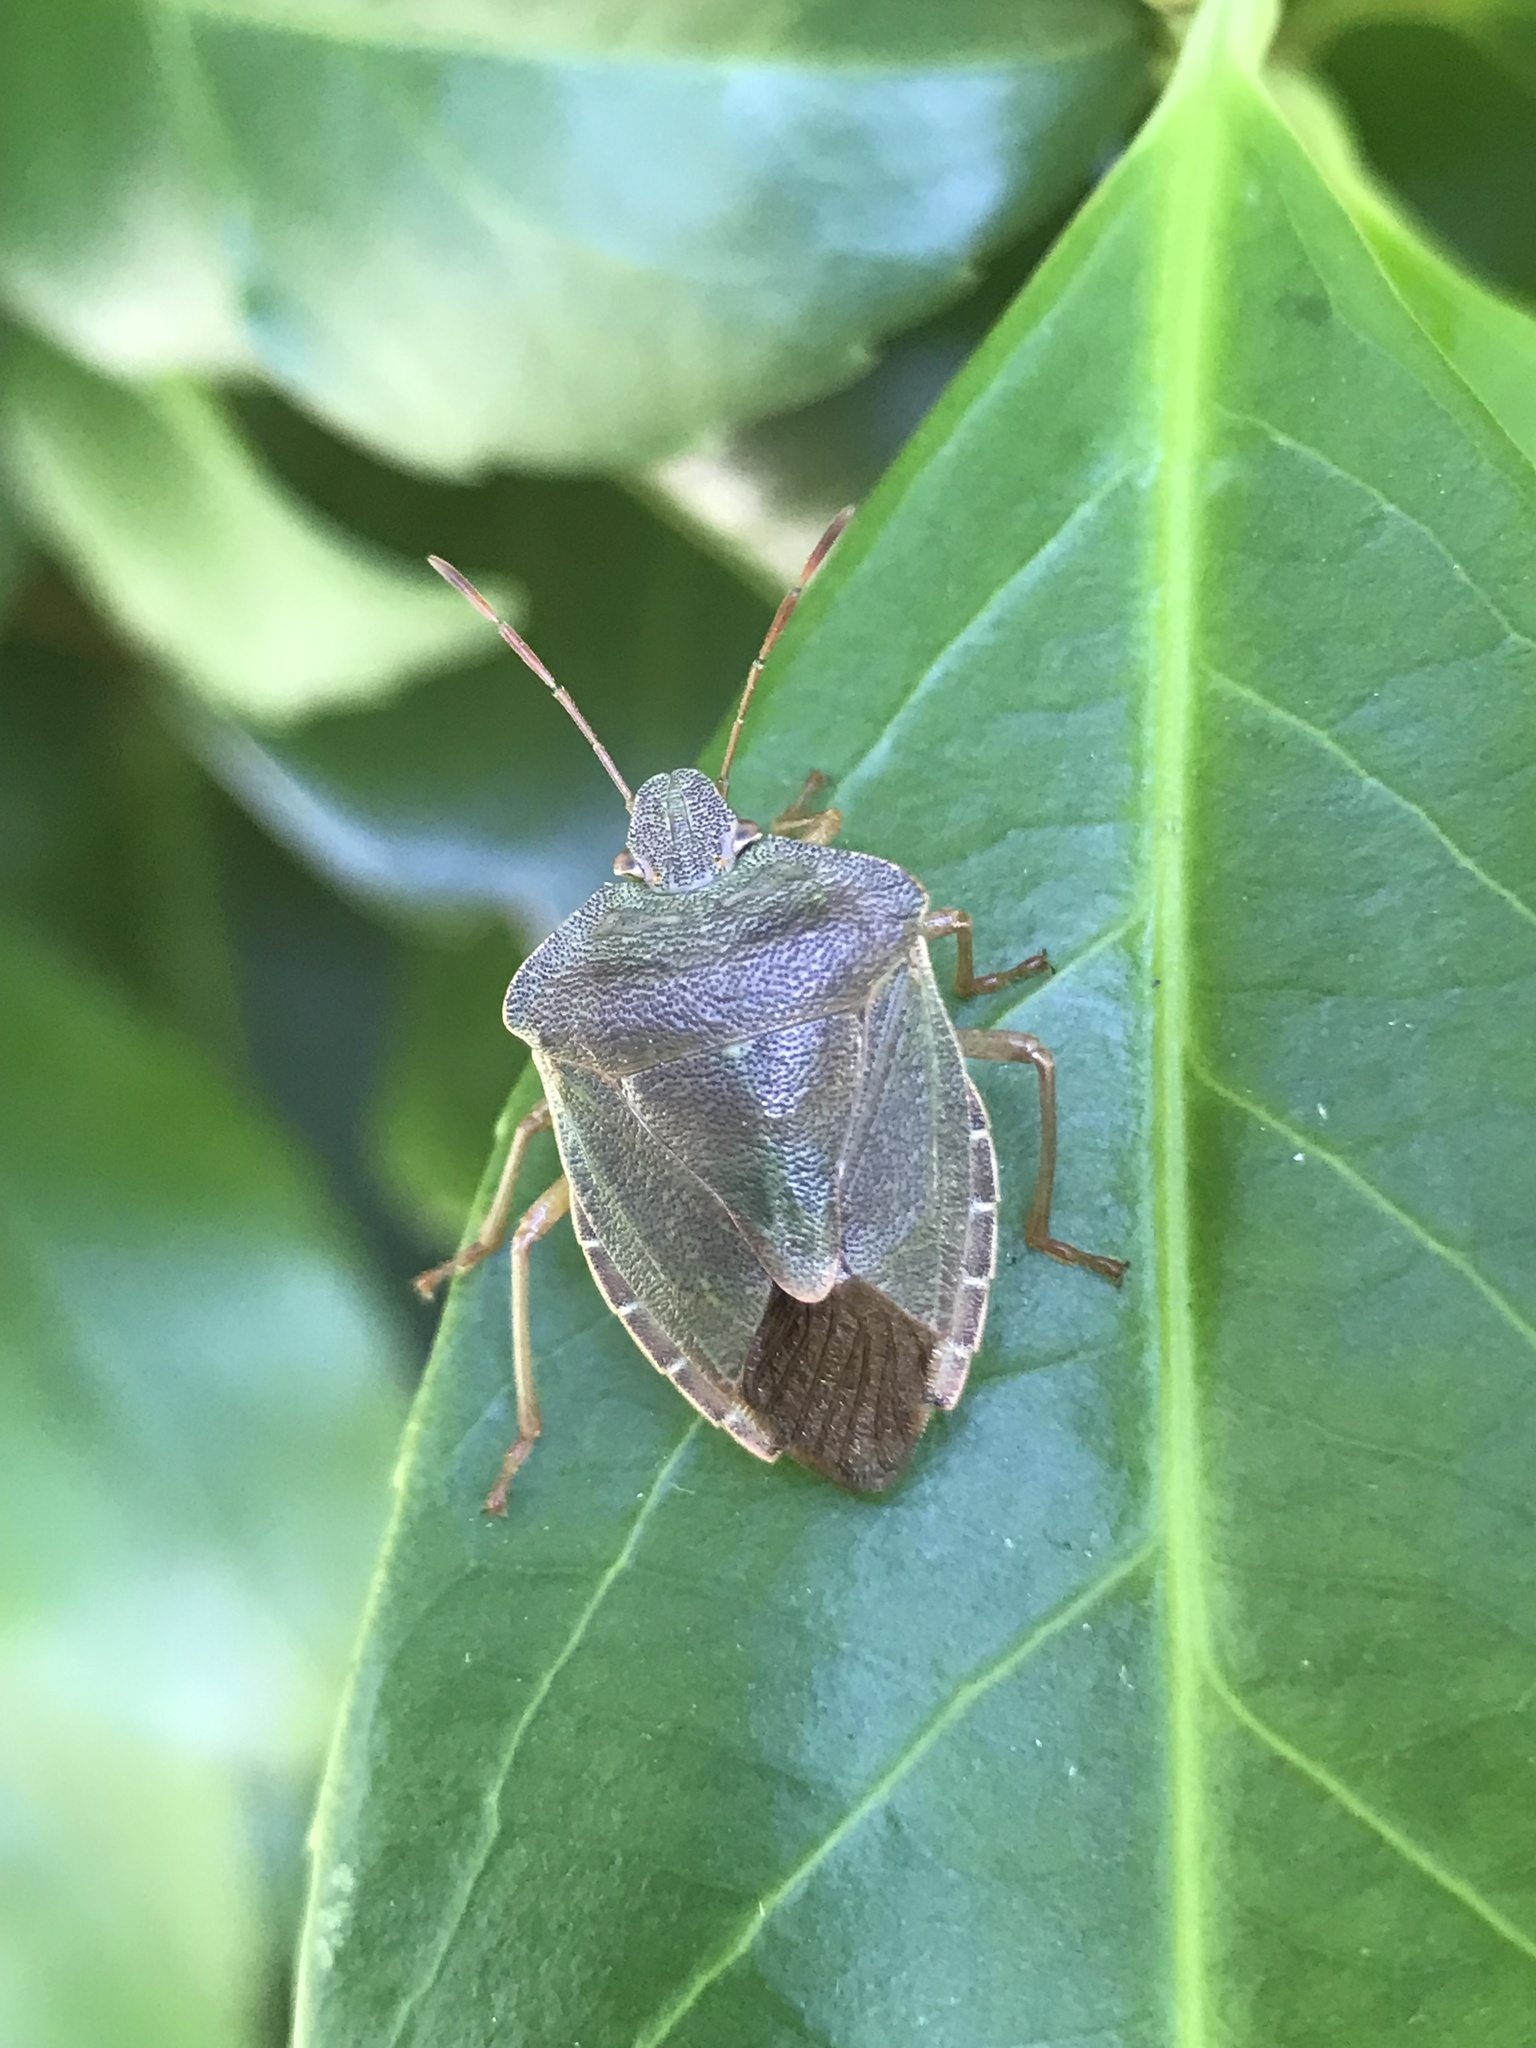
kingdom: Animalia
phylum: Arthropoda
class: Insecta
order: Hemiptera
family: Pentatomidae
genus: Palomena
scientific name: Palomena prasina
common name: Green shieldbug
